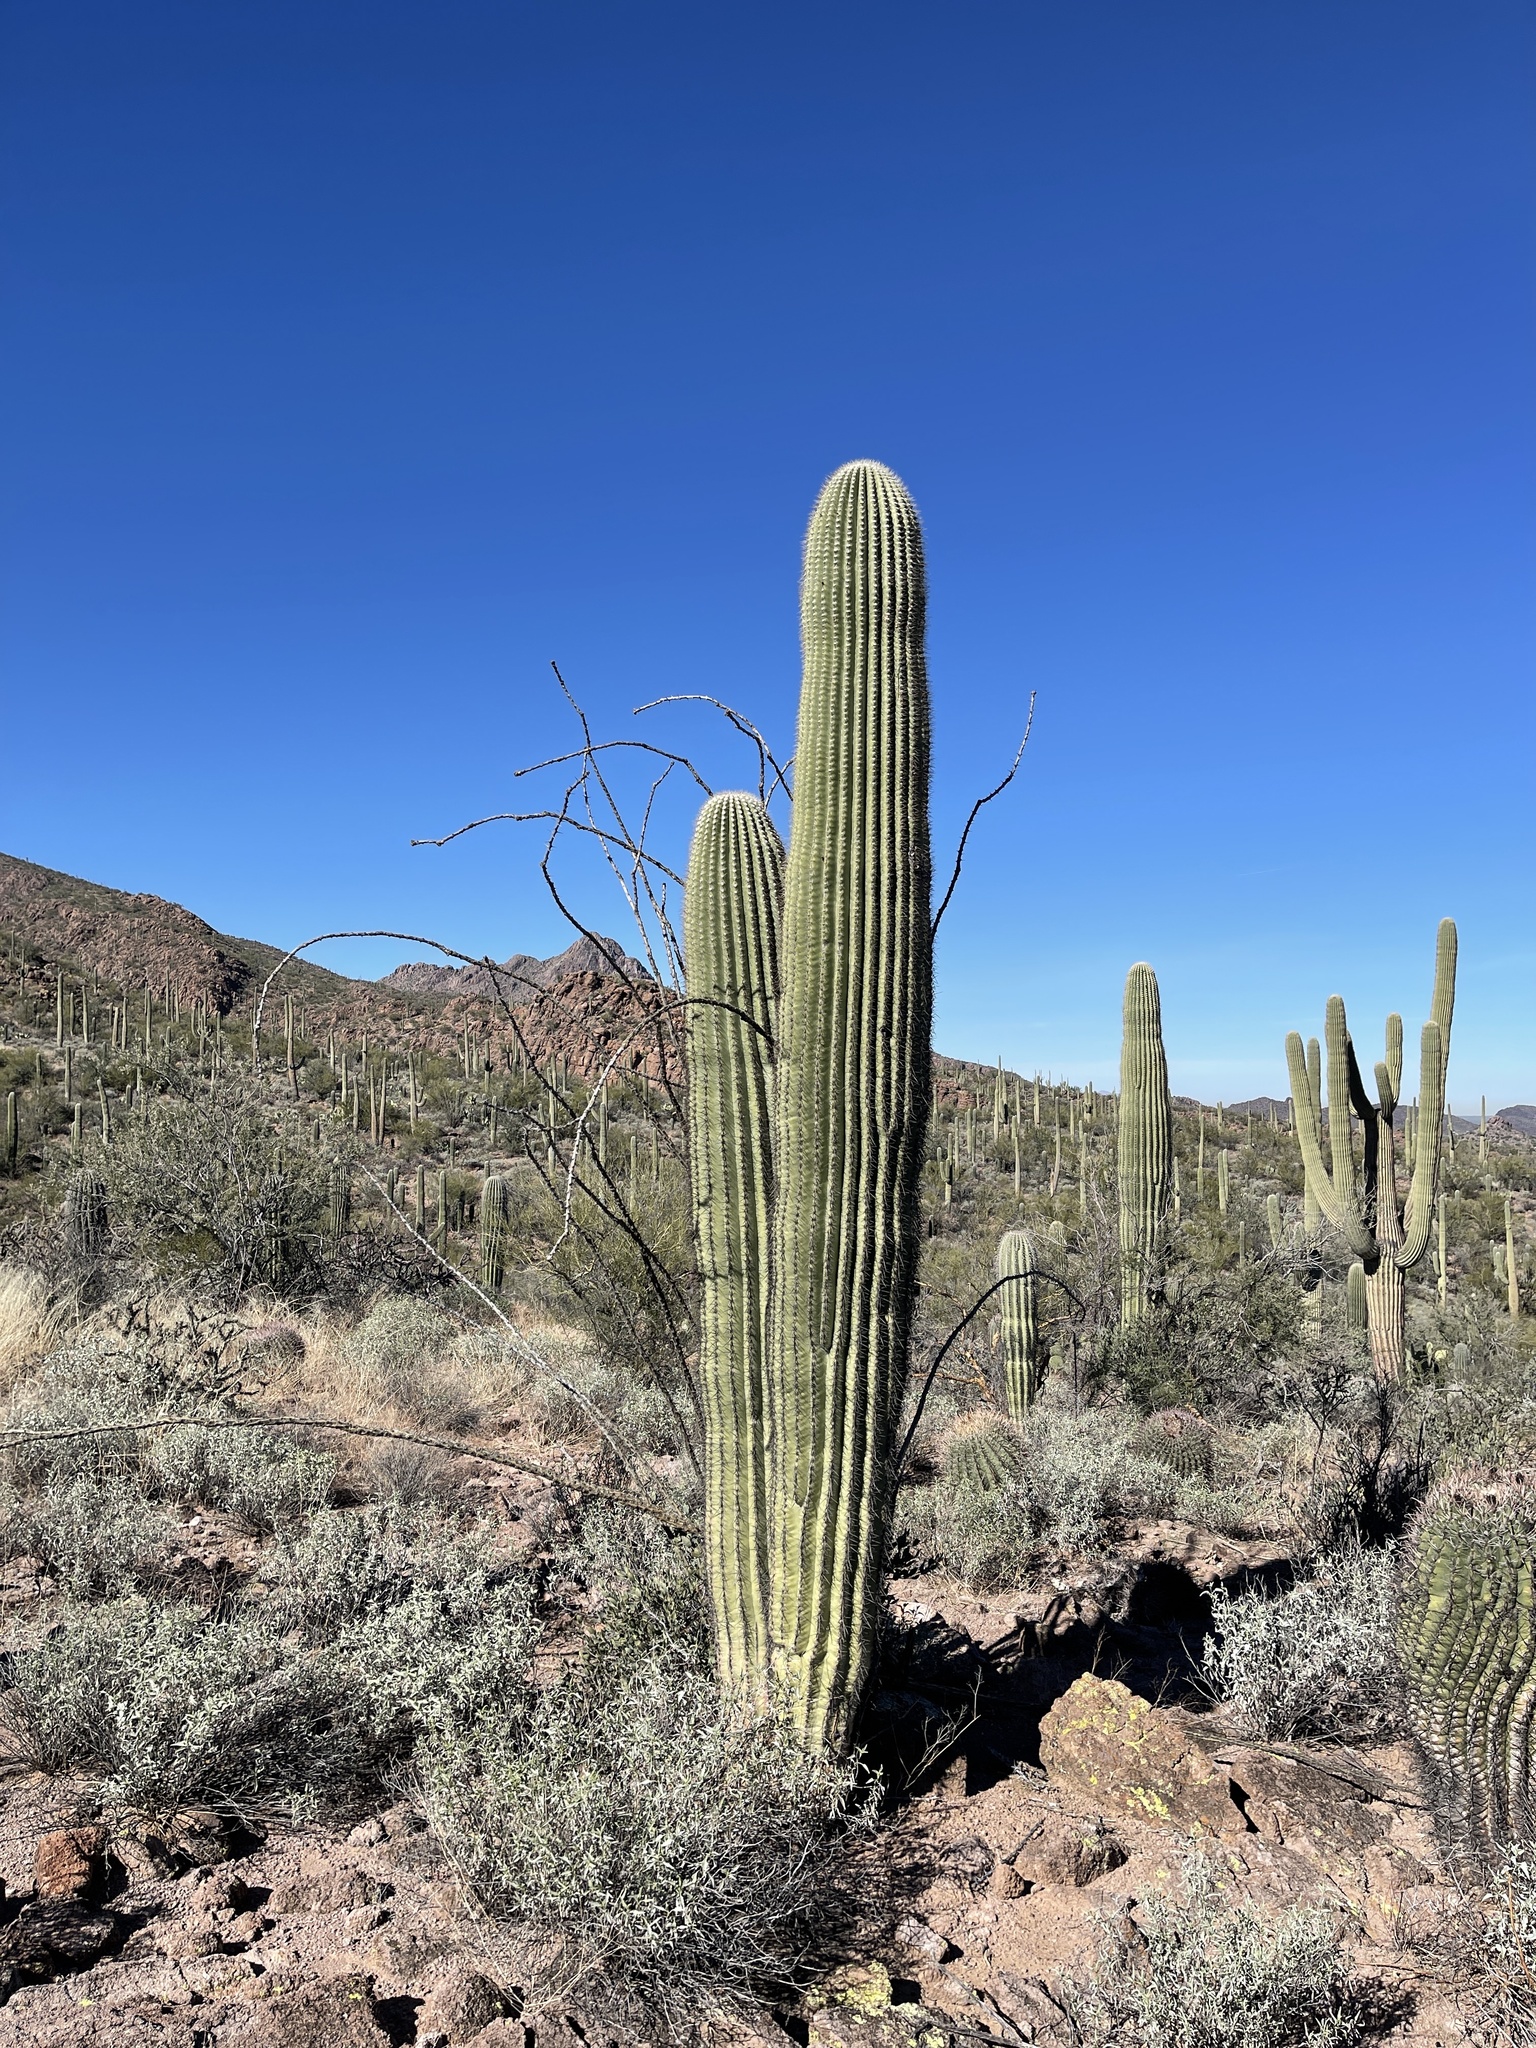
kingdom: Plantae
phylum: Tracheophyta
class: Magnoliopsida
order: Caryophyllales
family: Cactaceae
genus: Carnegiea
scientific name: Carnegiea gigantea
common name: Saguaro
